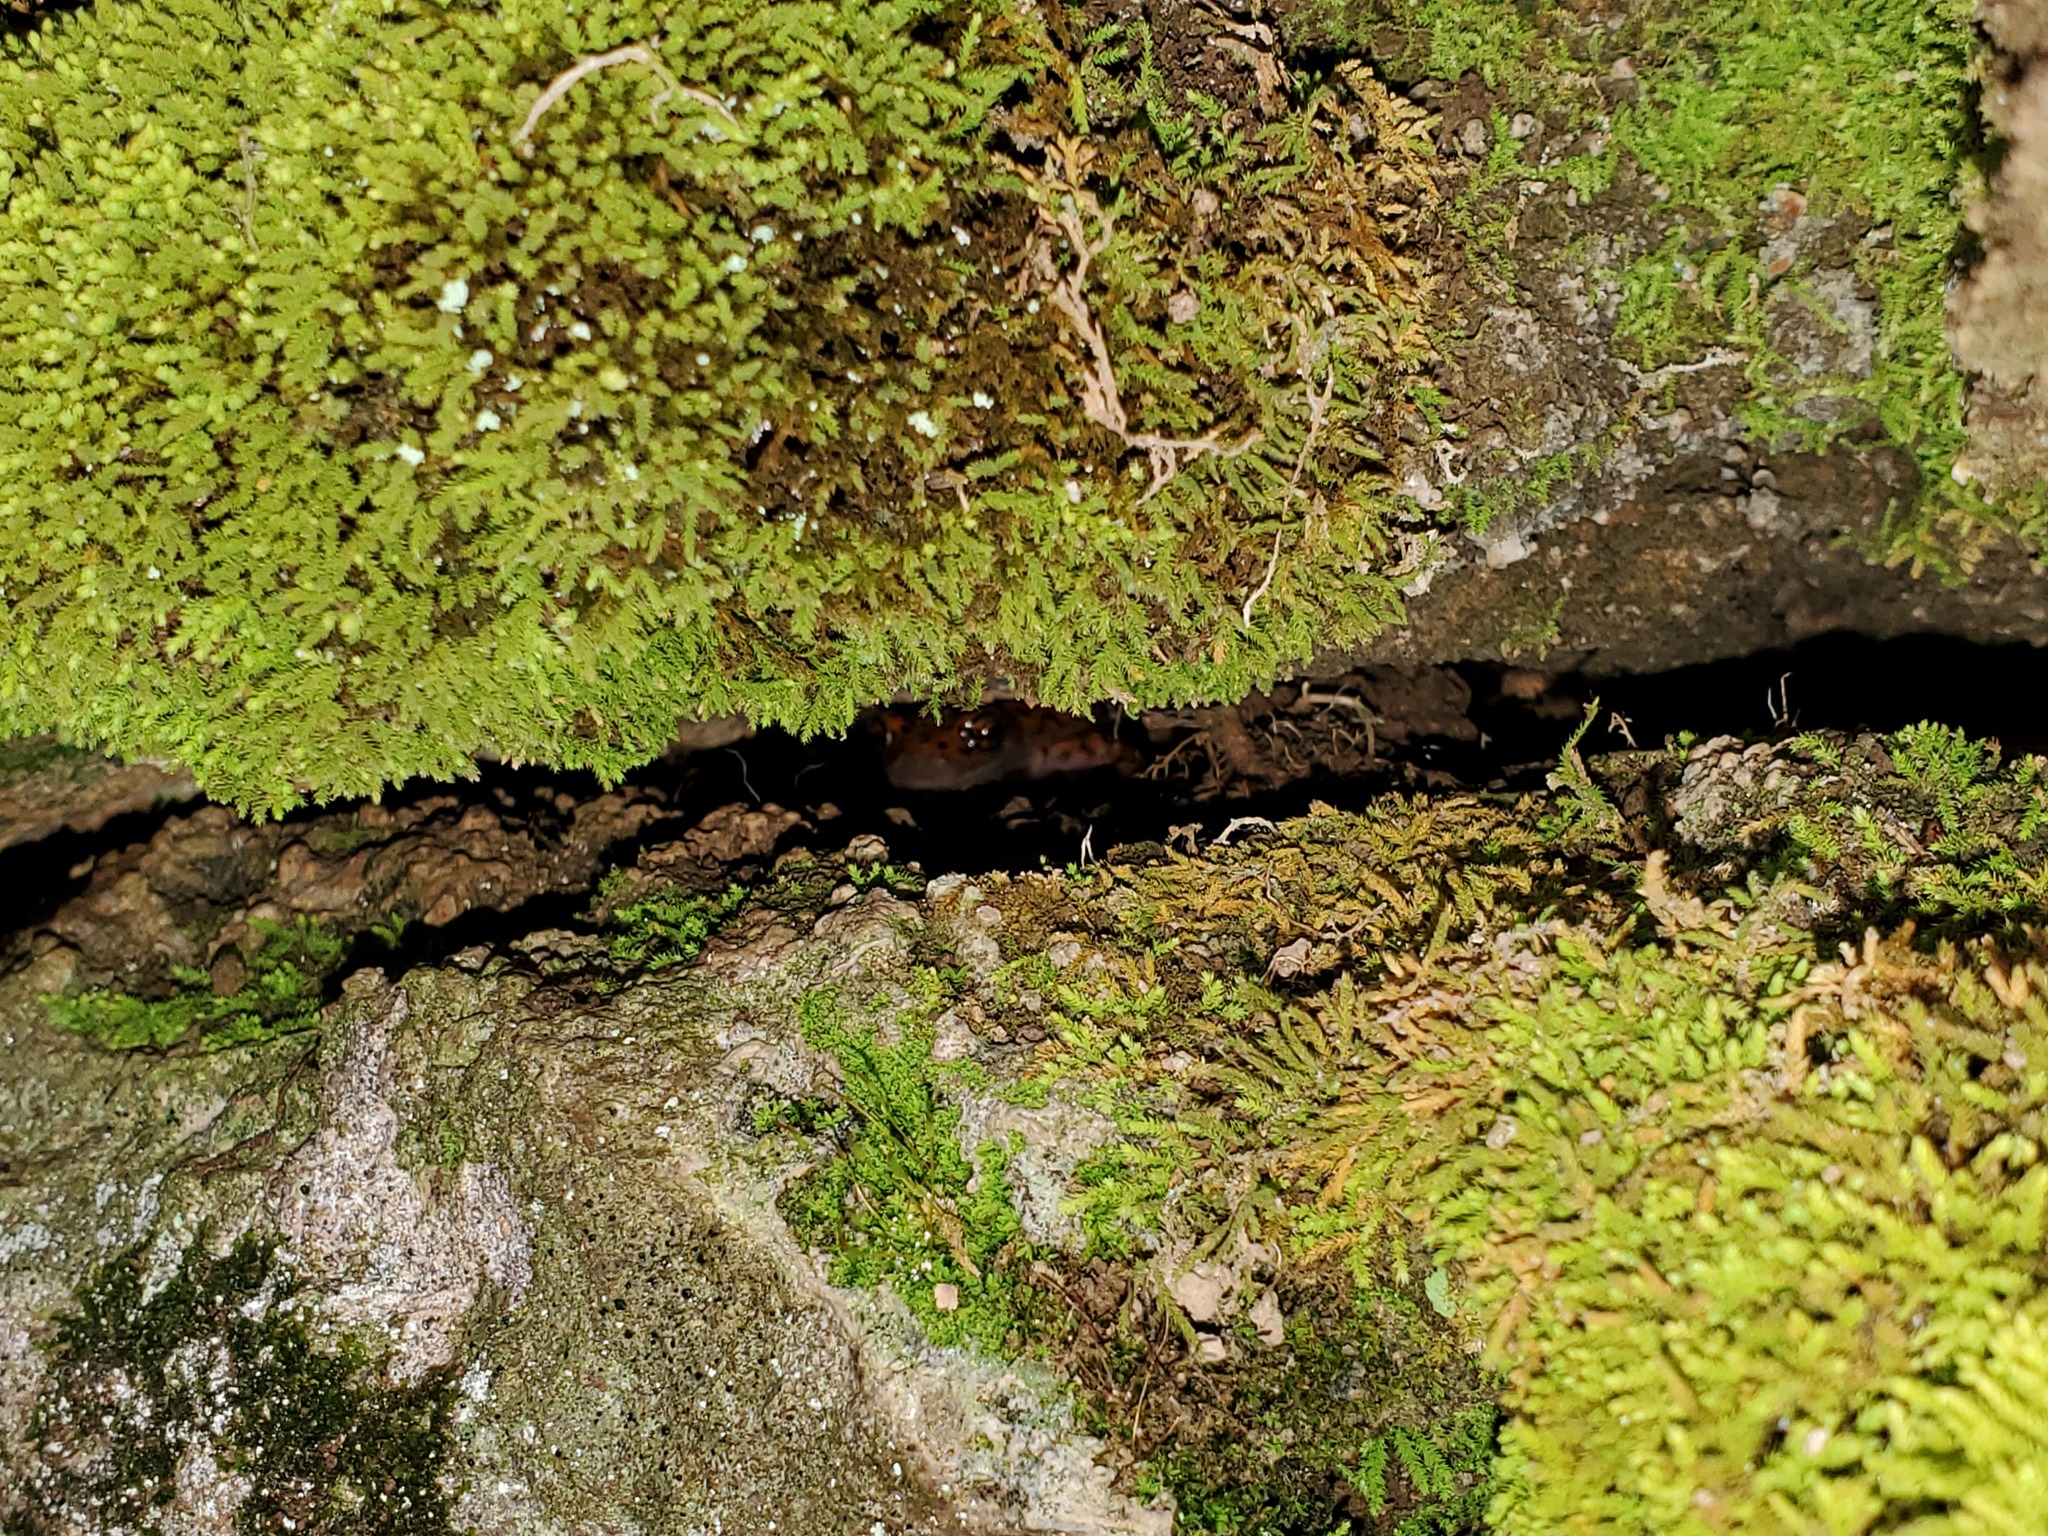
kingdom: Animalia
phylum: Chordata
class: Amphibia
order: Caudata
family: Plethodontidae
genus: Eurycea
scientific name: Eurycea lucifuga
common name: Cave salamander
